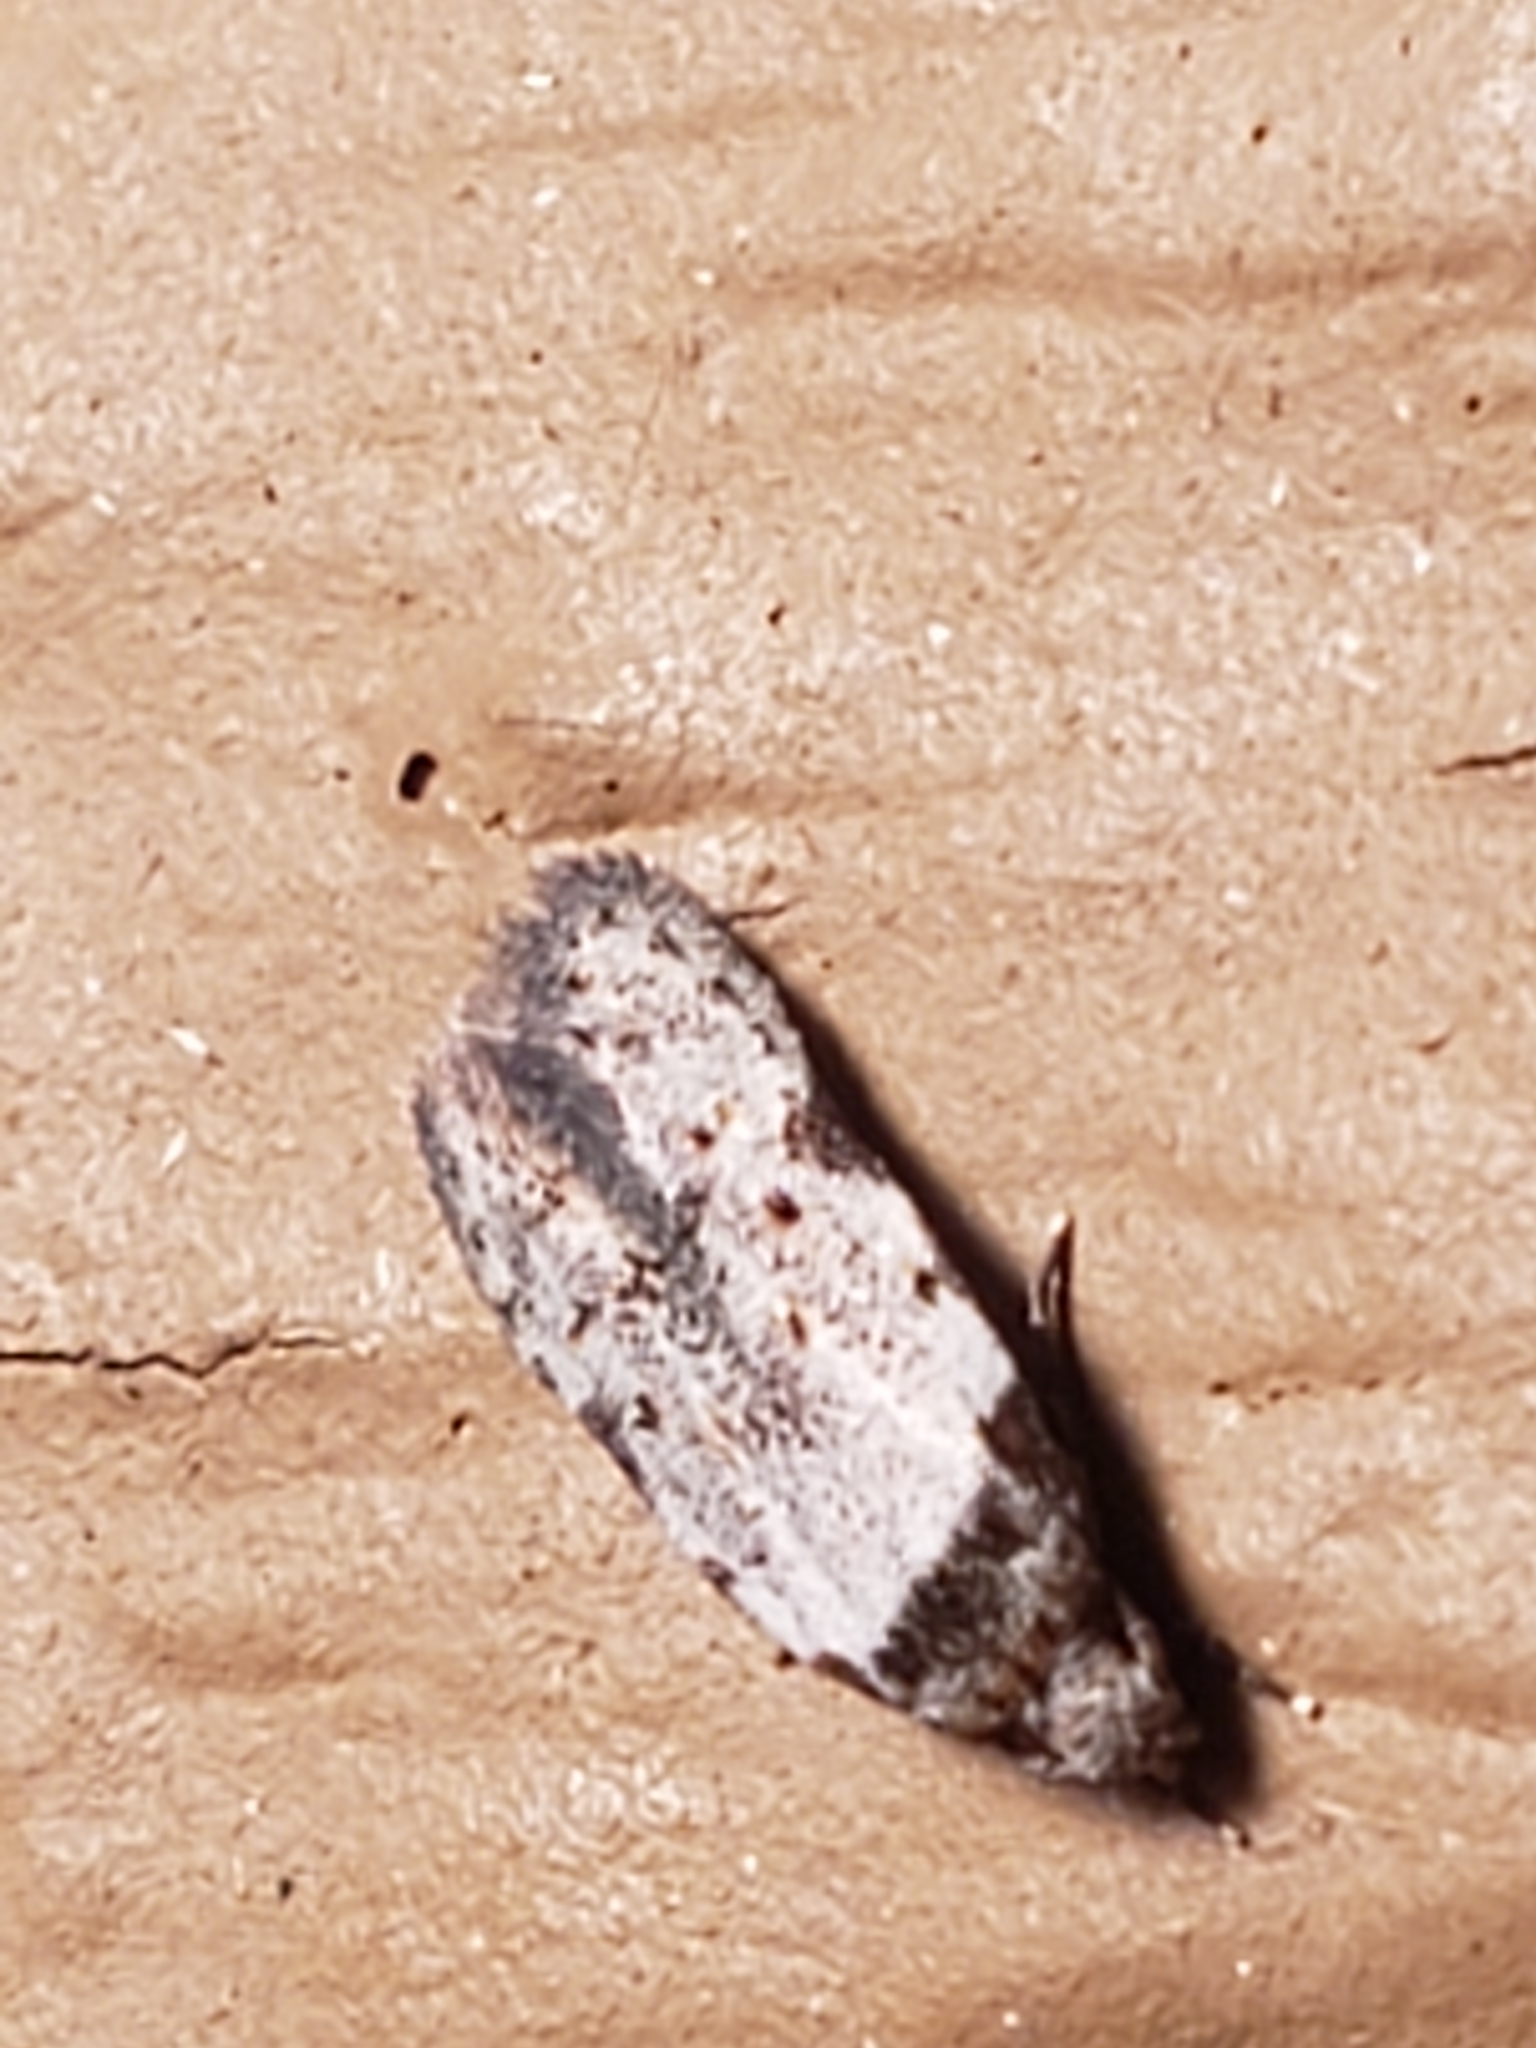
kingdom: Animalia
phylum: Arthropoda
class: Insecta
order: Lepidoptera
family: Autostichidae
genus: Taygete
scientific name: Taygete attributella
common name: Triangle-marked twirler moth
